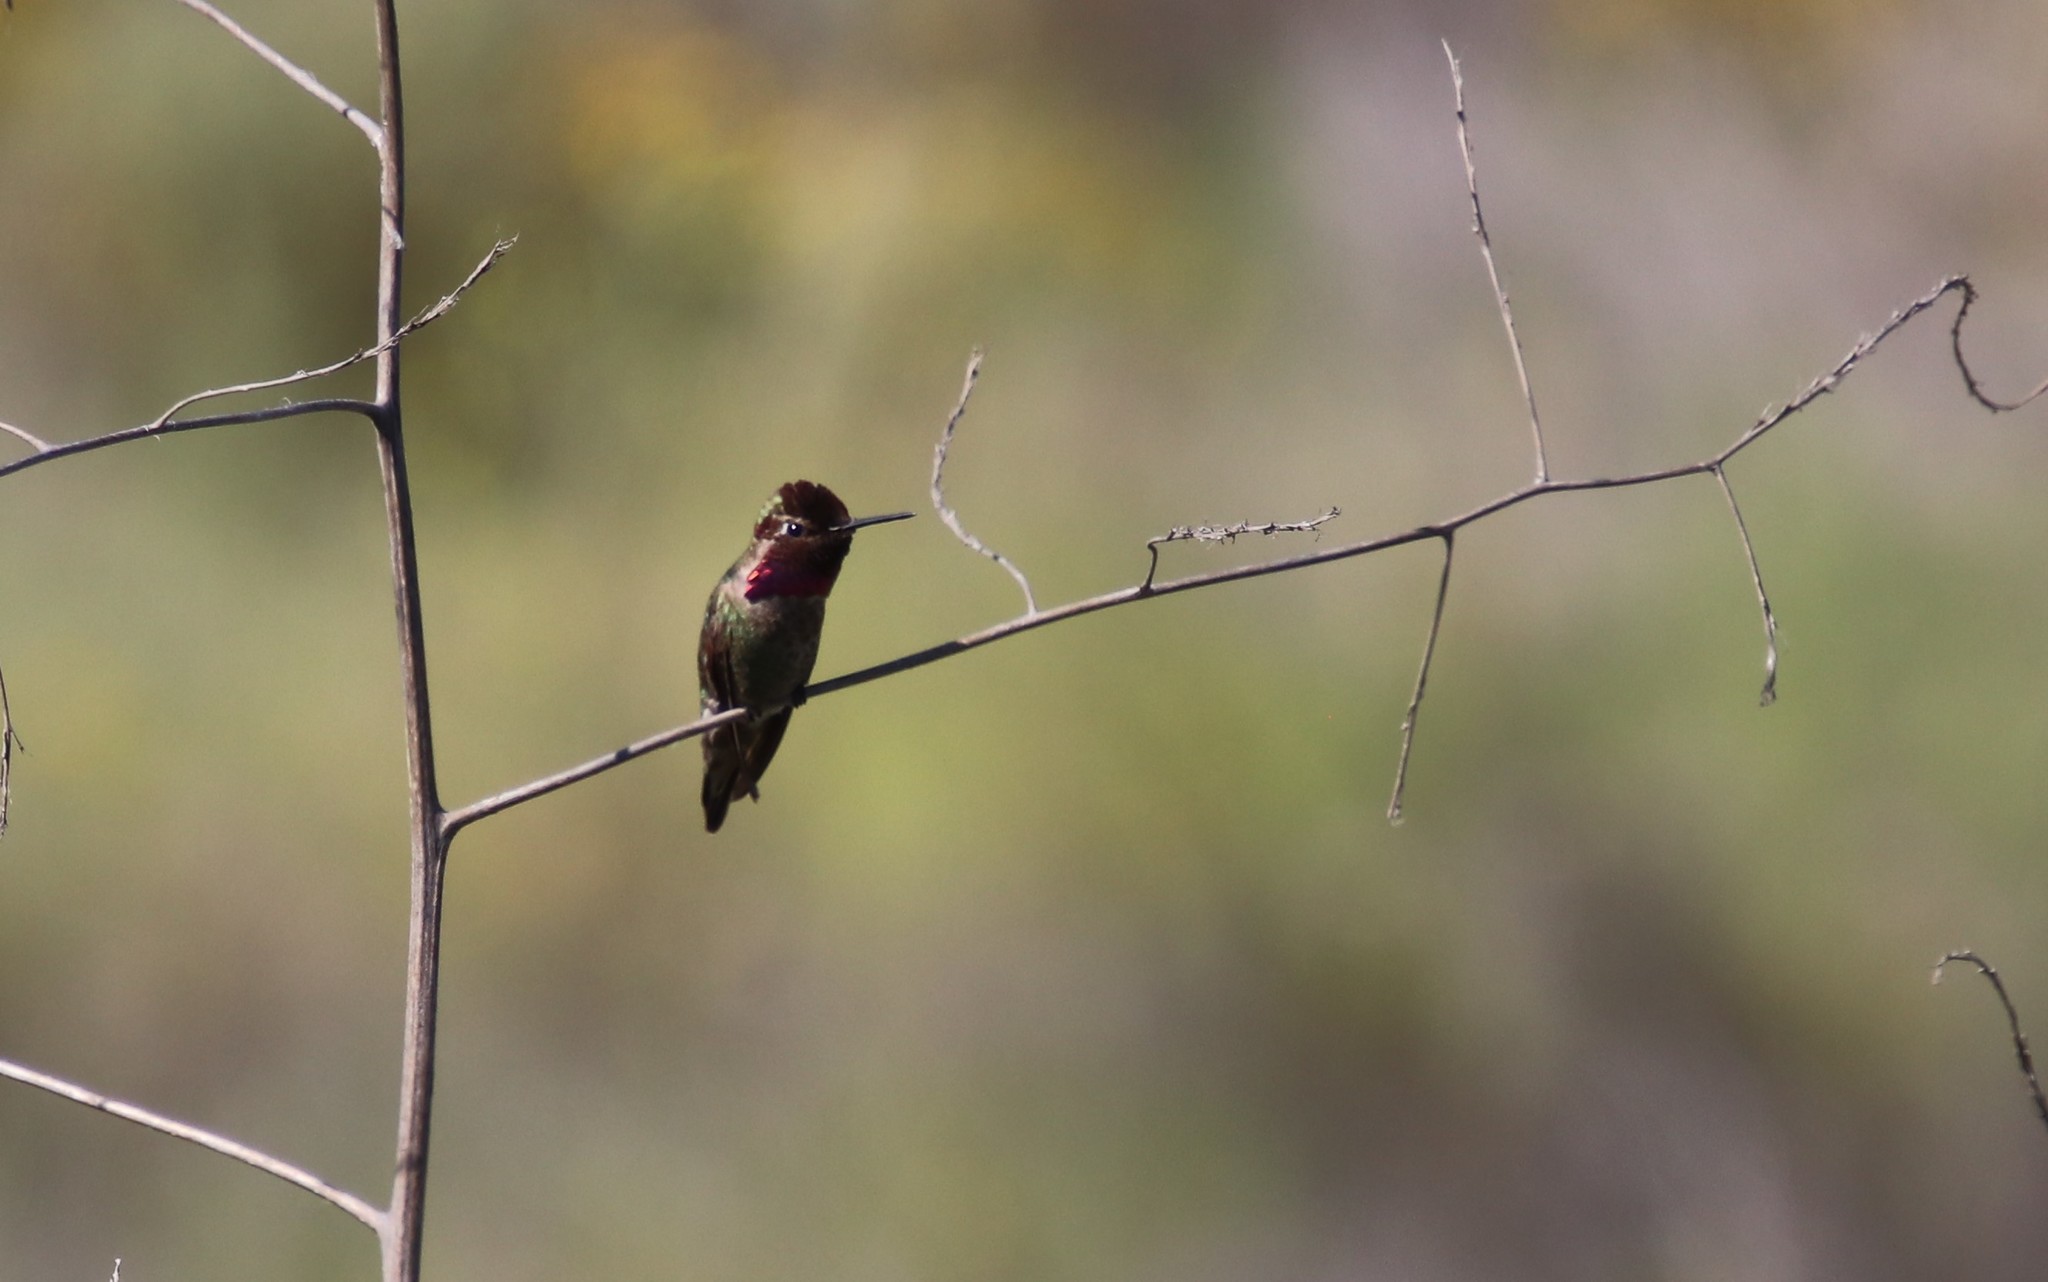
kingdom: Animalia
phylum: Chordata
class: Aves
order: Apodiformes
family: Trochilidae
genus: Calypte
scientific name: Calypte anna
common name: Anna's hummingbird
